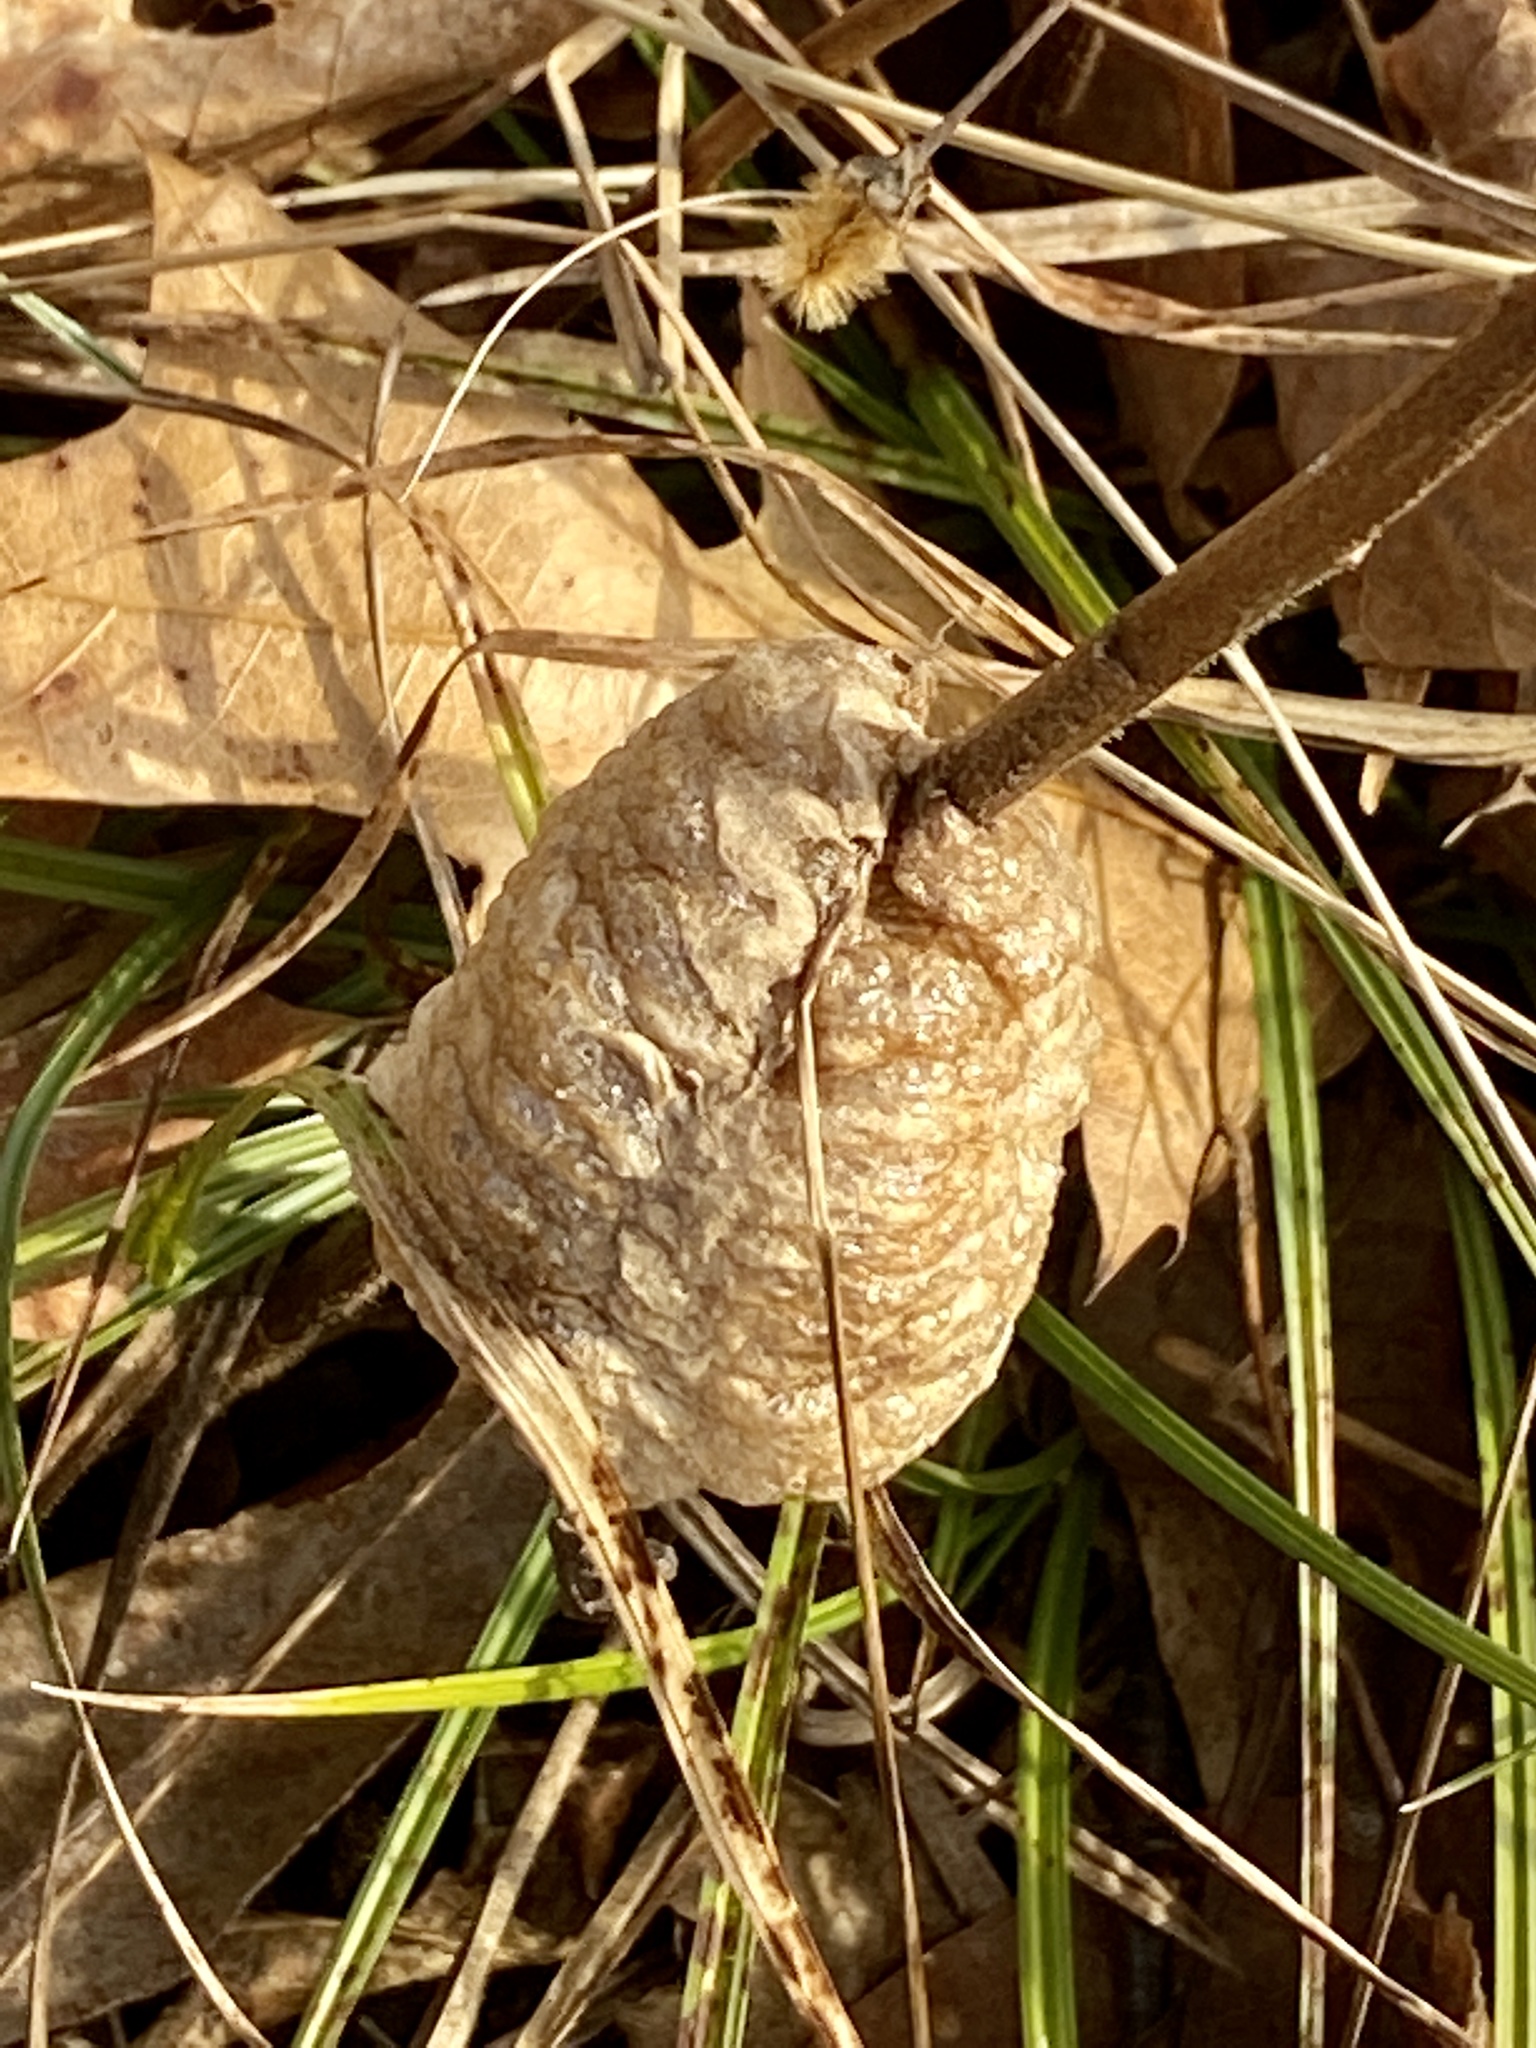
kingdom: Animalia
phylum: Arthropoda
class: Insecta
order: Mantodea
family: Mantidae
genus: Tenodera
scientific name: Tenodera sinensis
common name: Chinese mantis
